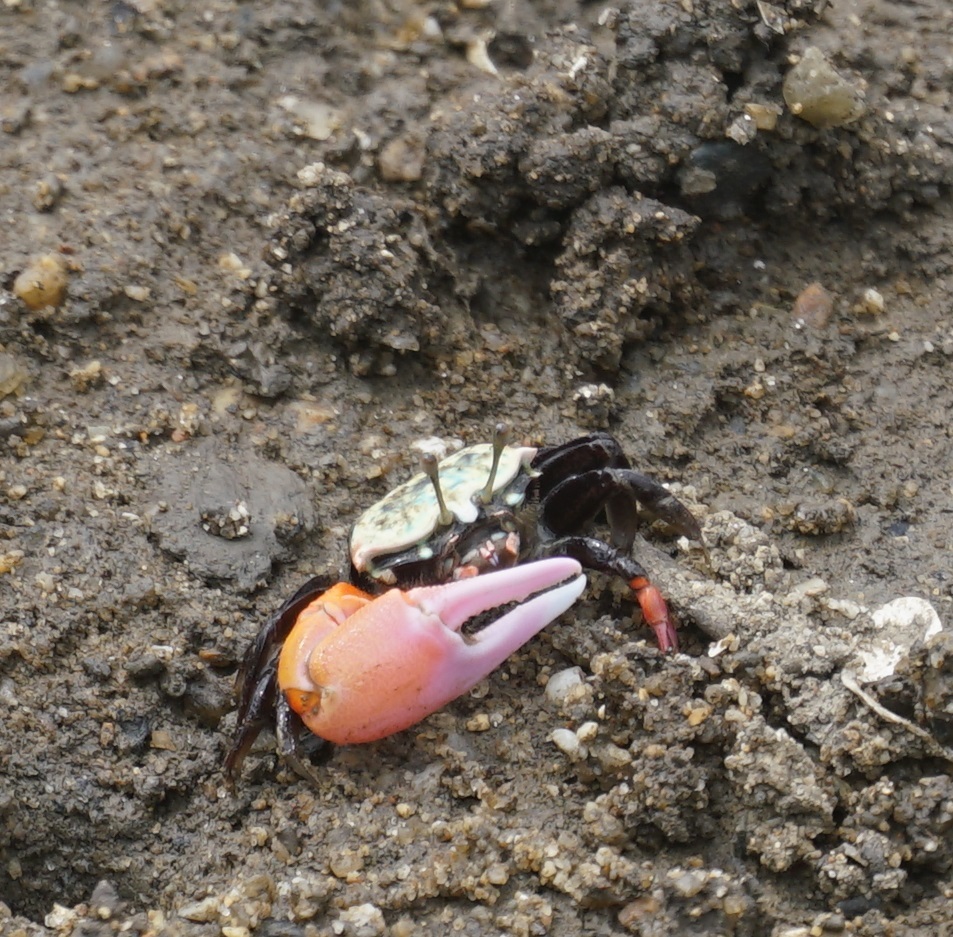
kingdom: Animalia
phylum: Arthropoda
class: Malacostraca
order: Decapoda
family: Ocypodidae
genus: Tubuca
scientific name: Tubuca polita
